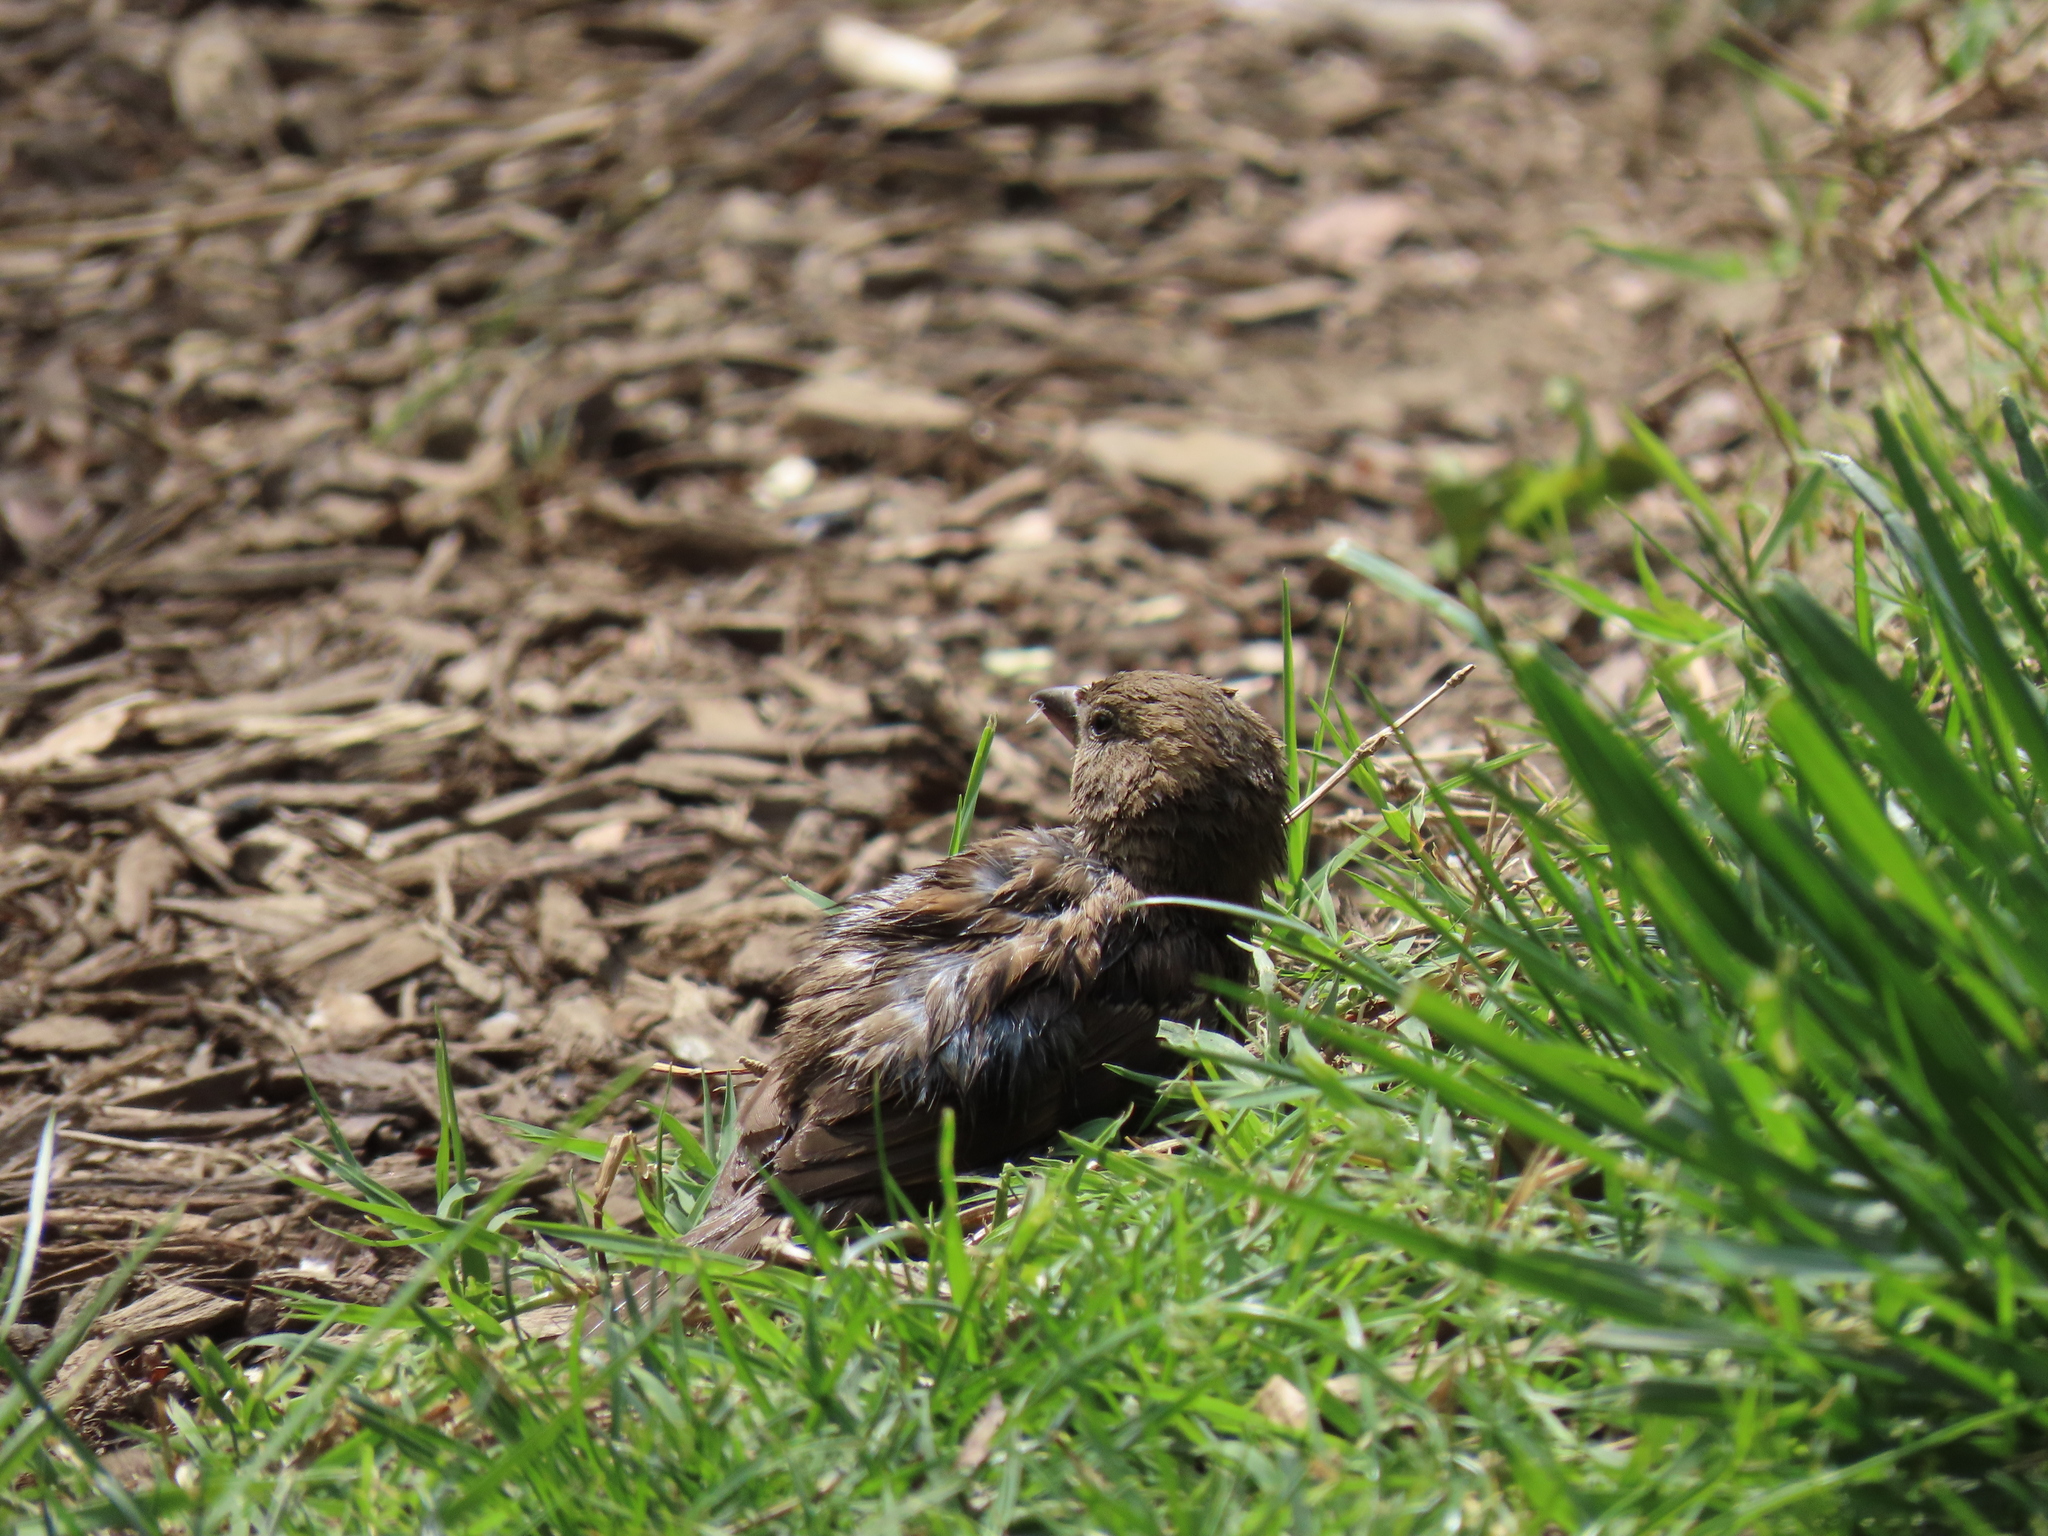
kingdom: Animalia
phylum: Chordata
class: Aves
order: Passeriformes
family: Passeridae
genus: Passer
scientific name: Passer domesticus
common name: House sparrow
